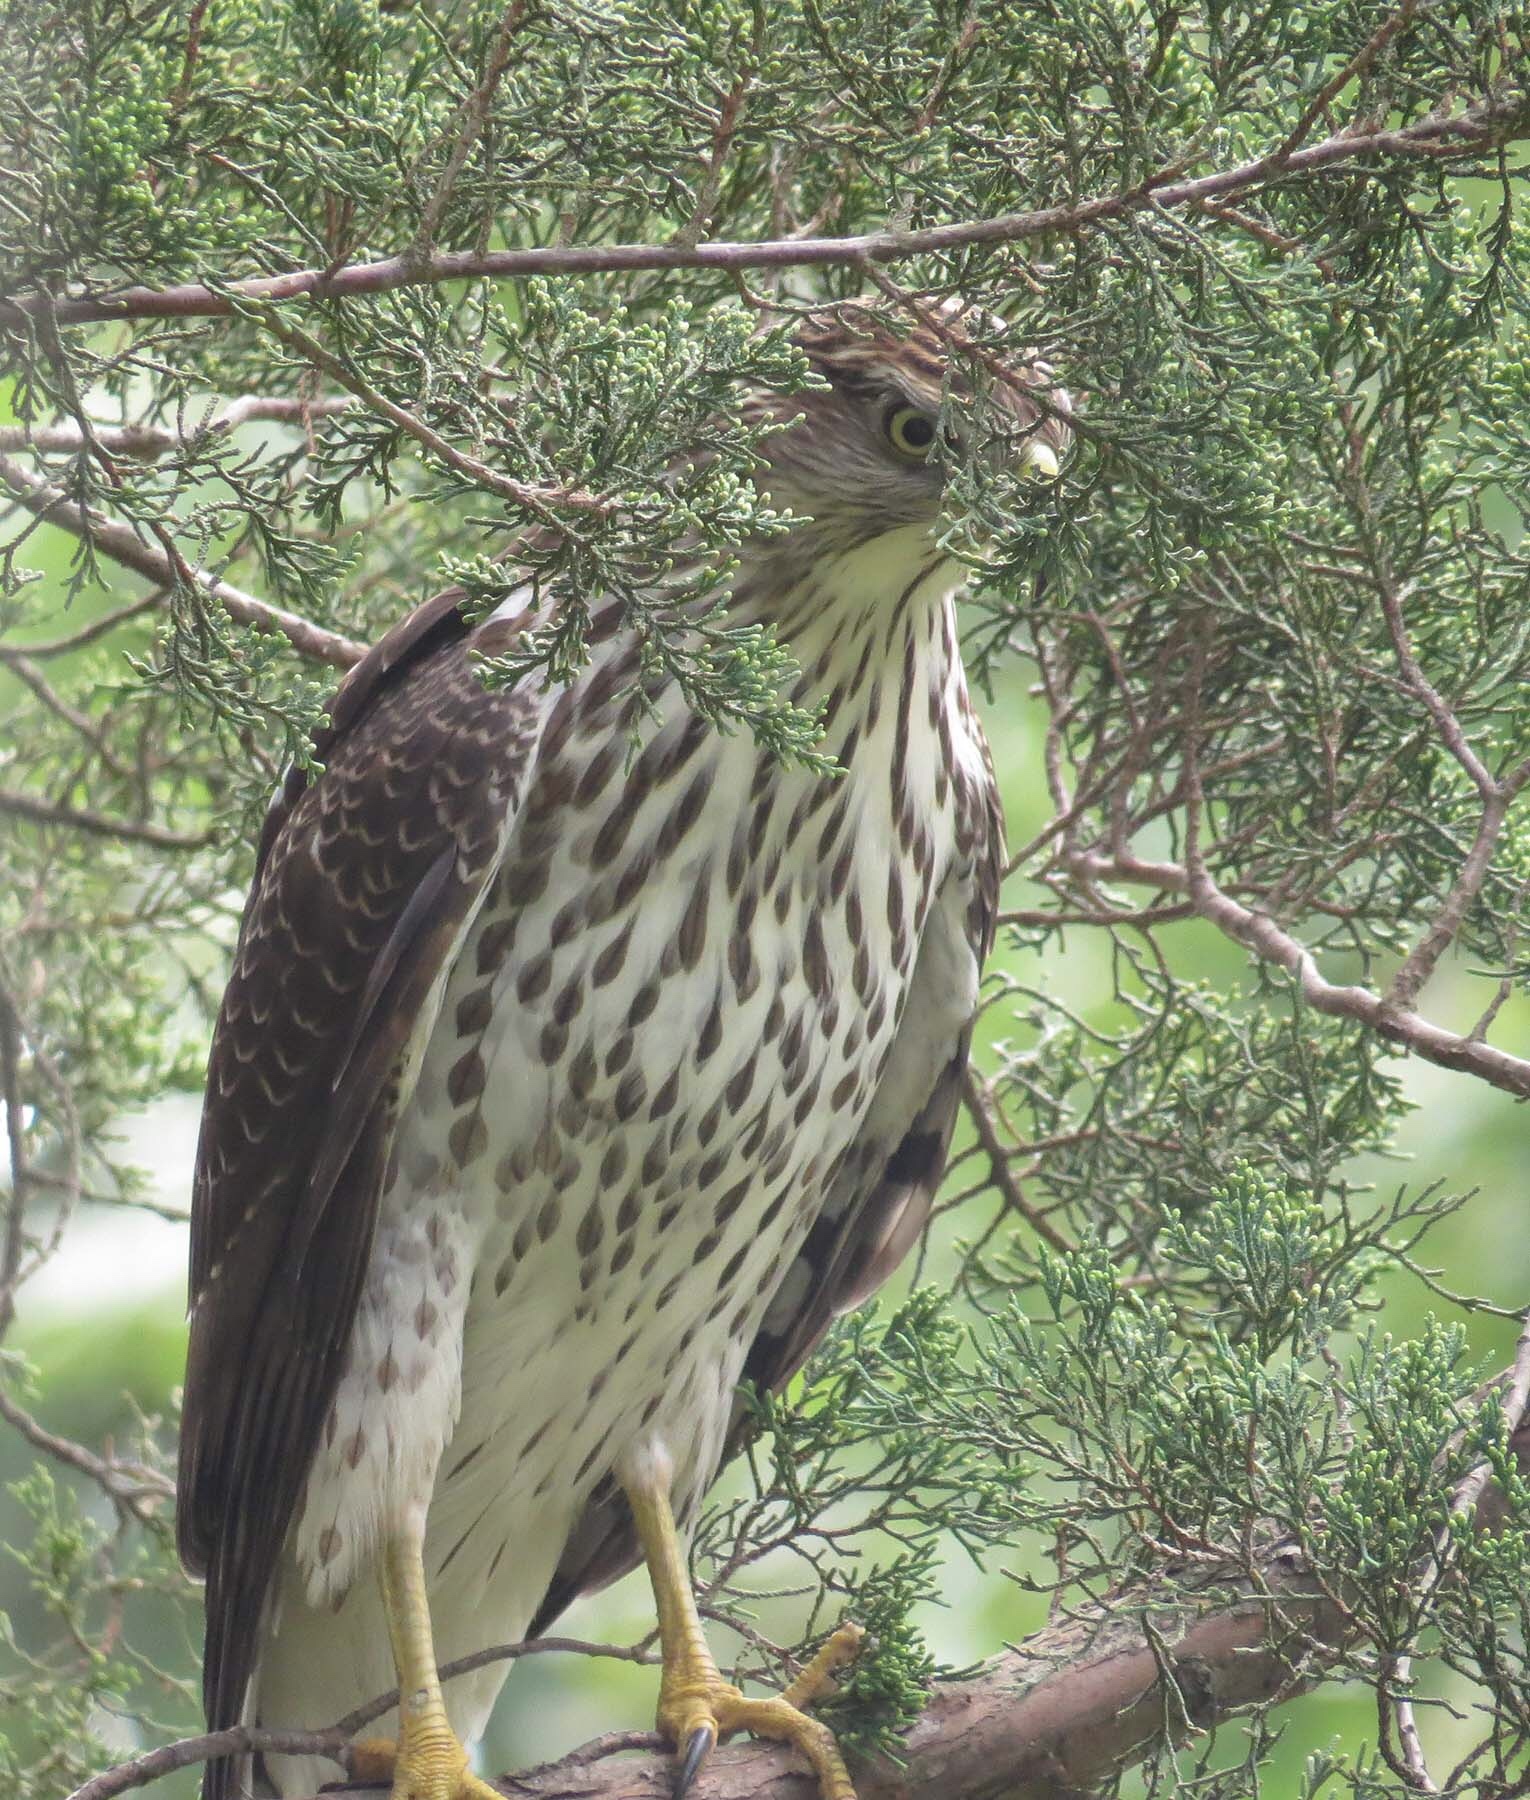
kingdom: Animalia
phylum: Chordata
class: Aves
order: Accipitriformes
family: Accipitridae
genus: Accipiter
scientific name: Accipiter cooperii
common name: Cooper's hawk
